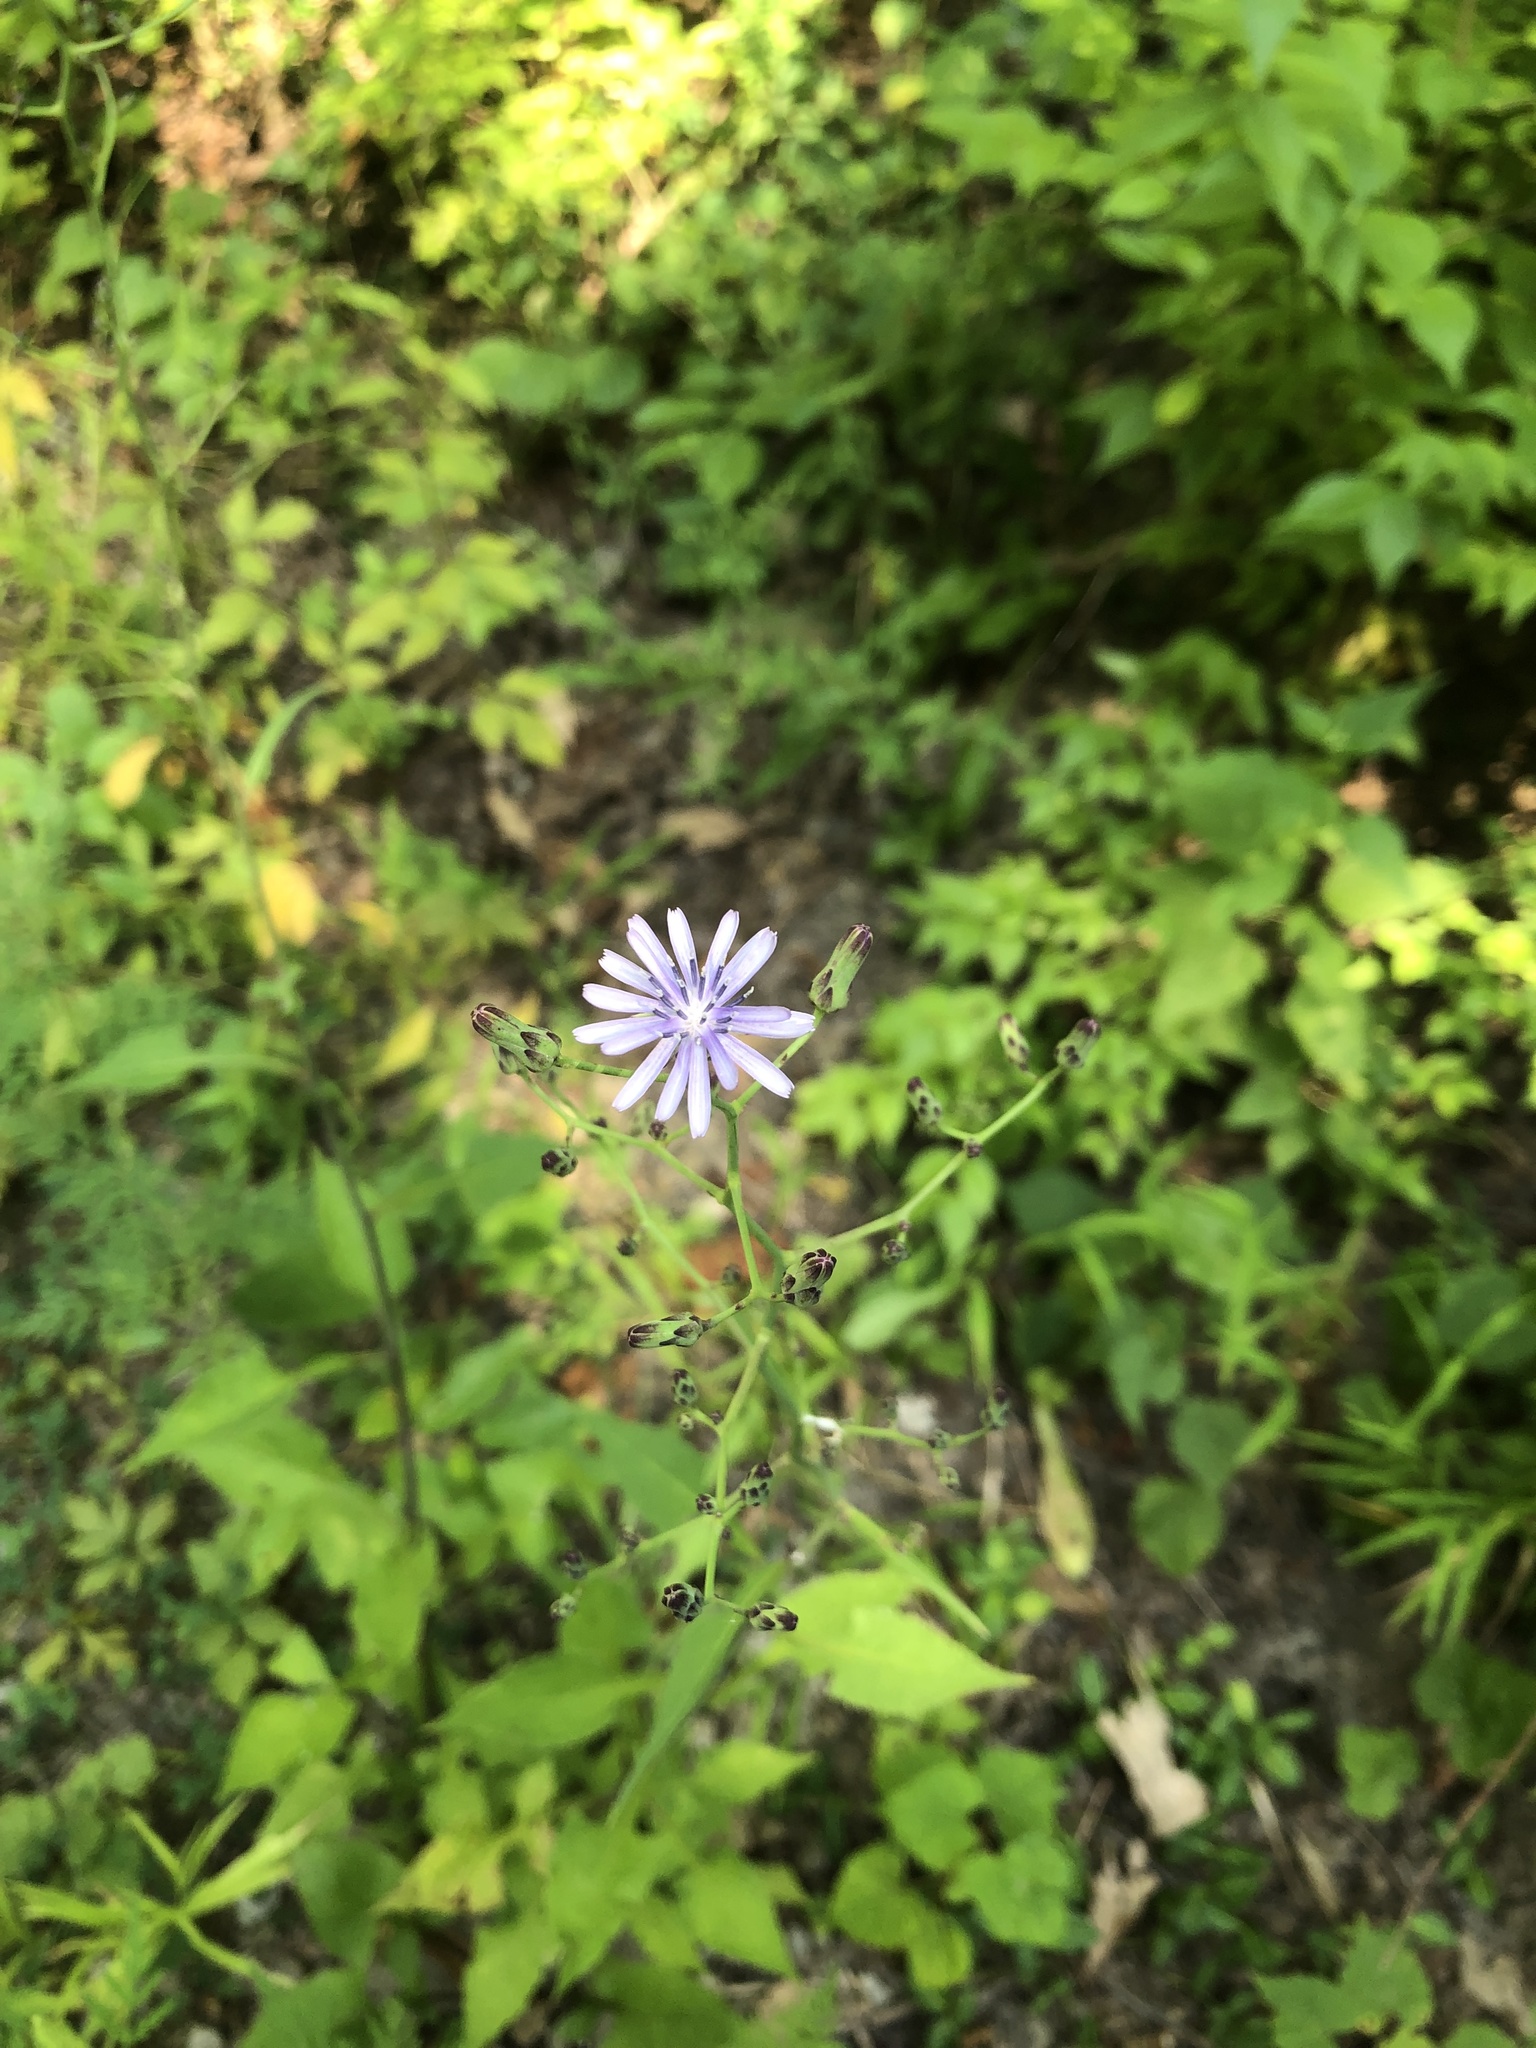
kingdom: Plantae
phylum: Tracheophyta
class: Magnoliopsida
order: Asterales
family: Asteraceae
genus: Lactuca
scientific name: Lactuca floridana
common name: Woodland lettuce
